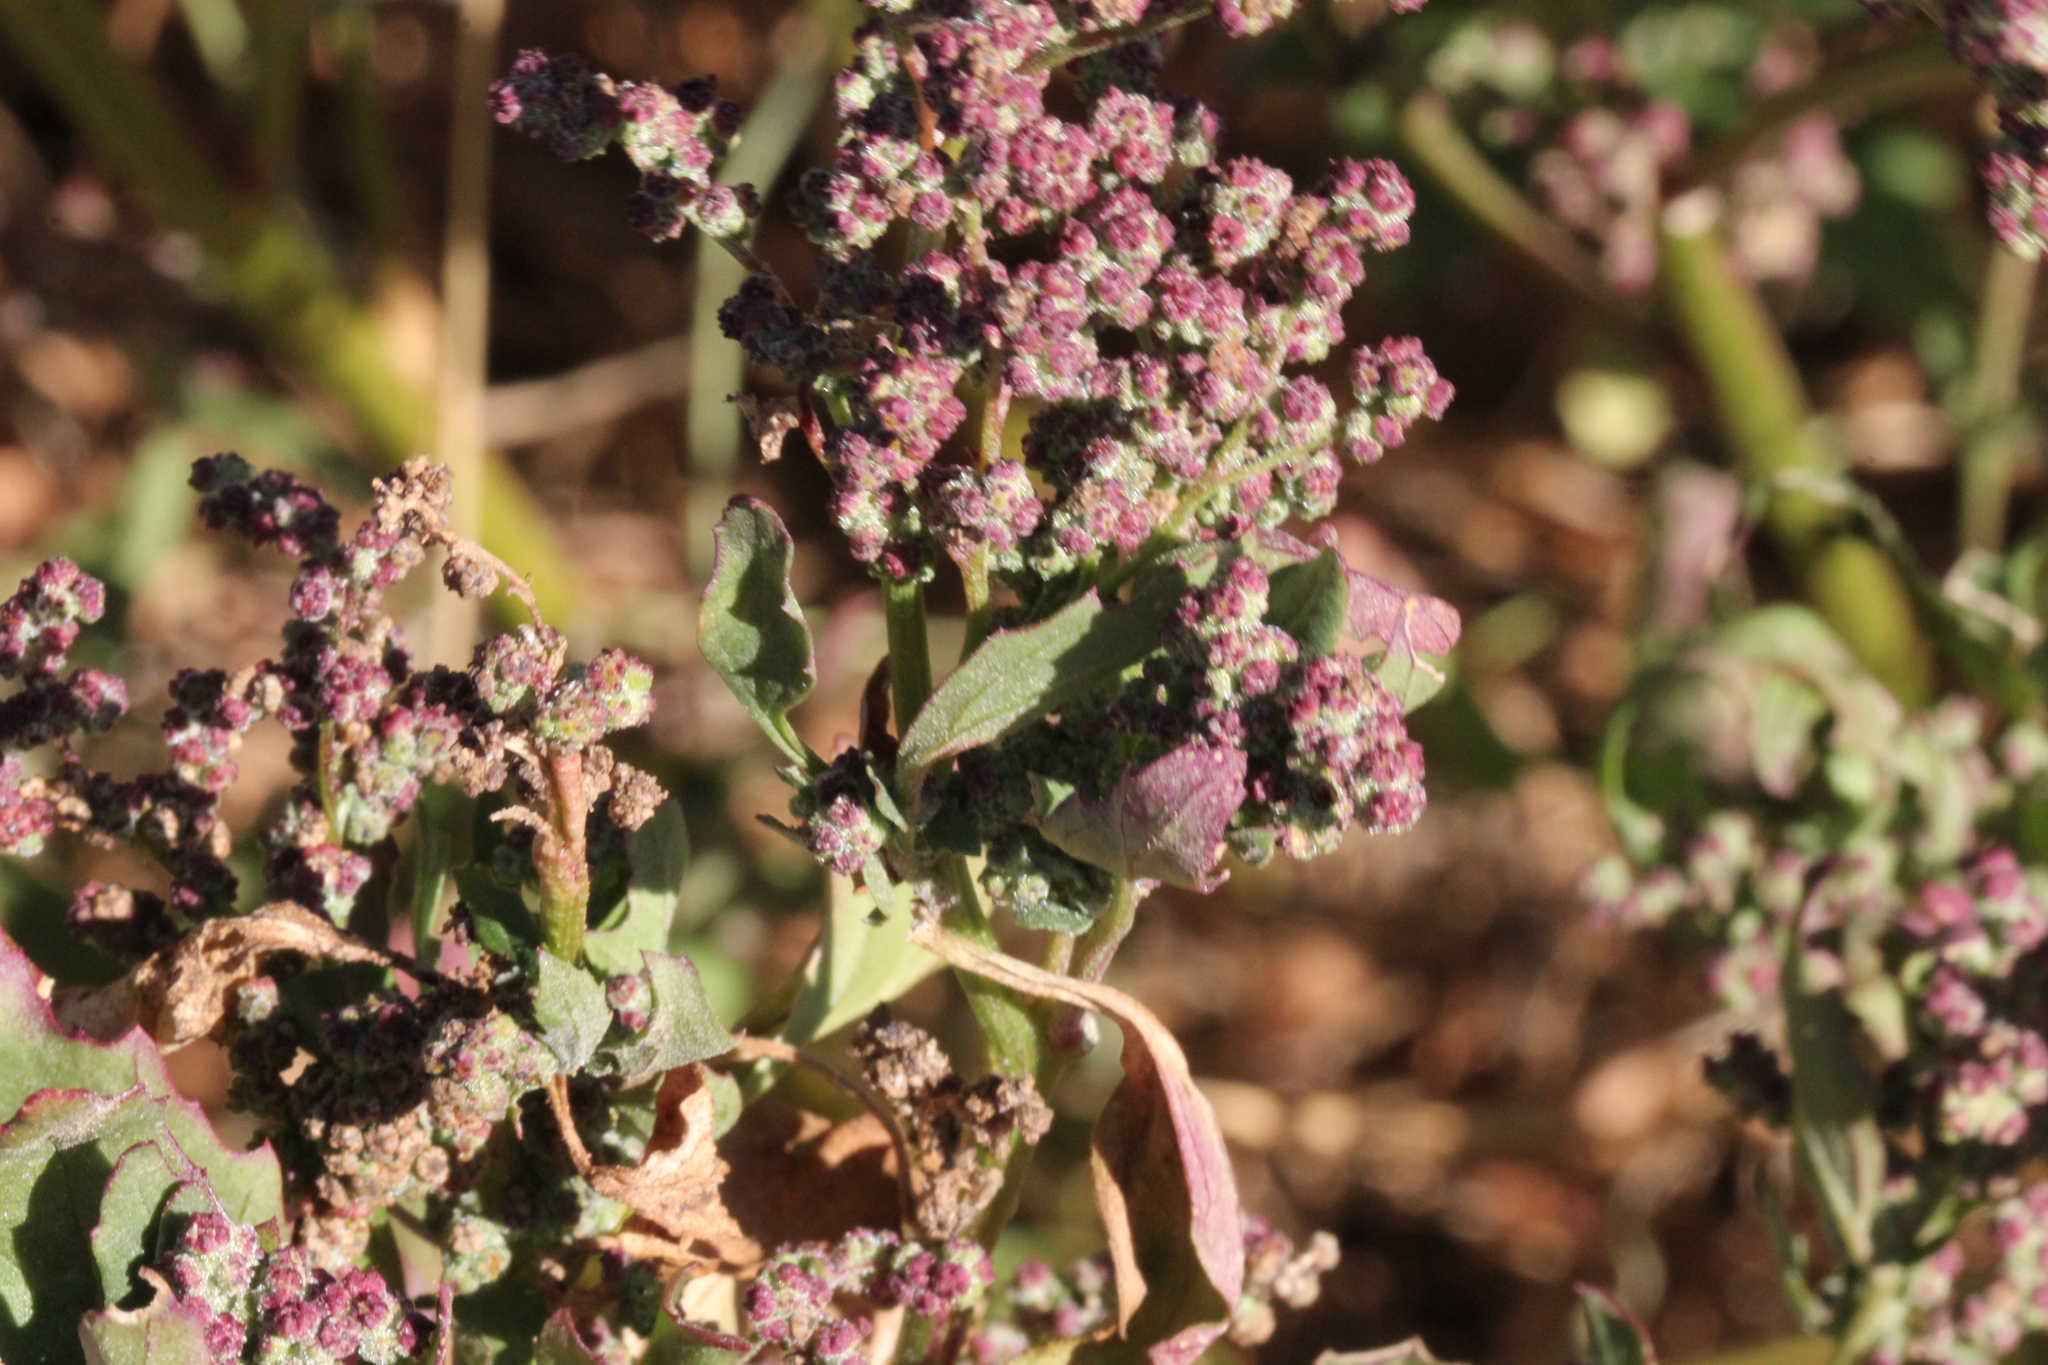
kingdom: Plantae
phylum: Tracheophyta
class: Magnoliopsida
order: Caryophyllales
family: Amaranthaceae
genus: Chenopodiastrum
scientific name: Chenopodiastrum murale
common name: Sowbane
